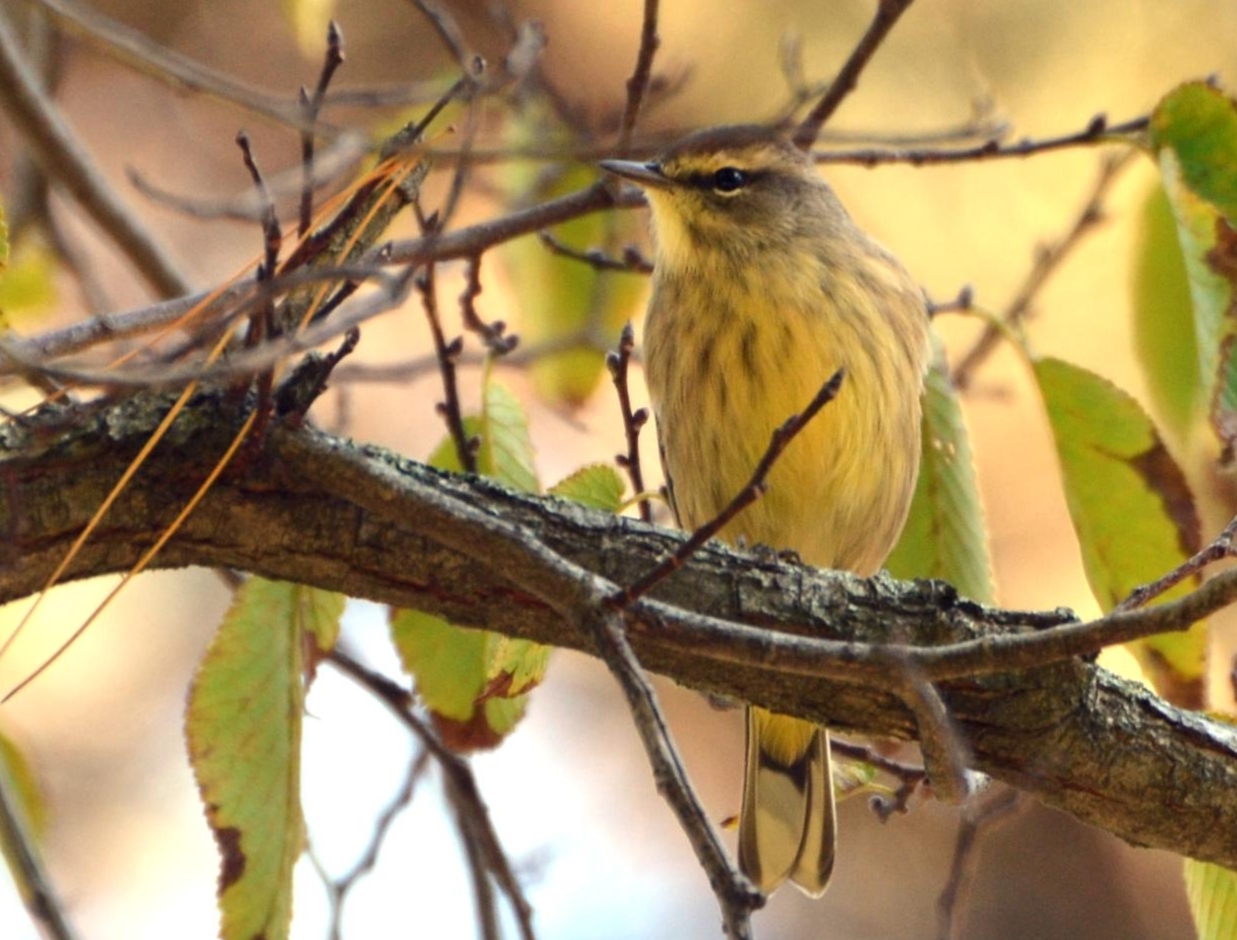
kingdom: Animalia
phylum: Chordata
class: Aves
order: Passeriformes
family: Parulidae
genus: Setophaga
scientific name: Setophaga palmarum
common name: Palm warbler
